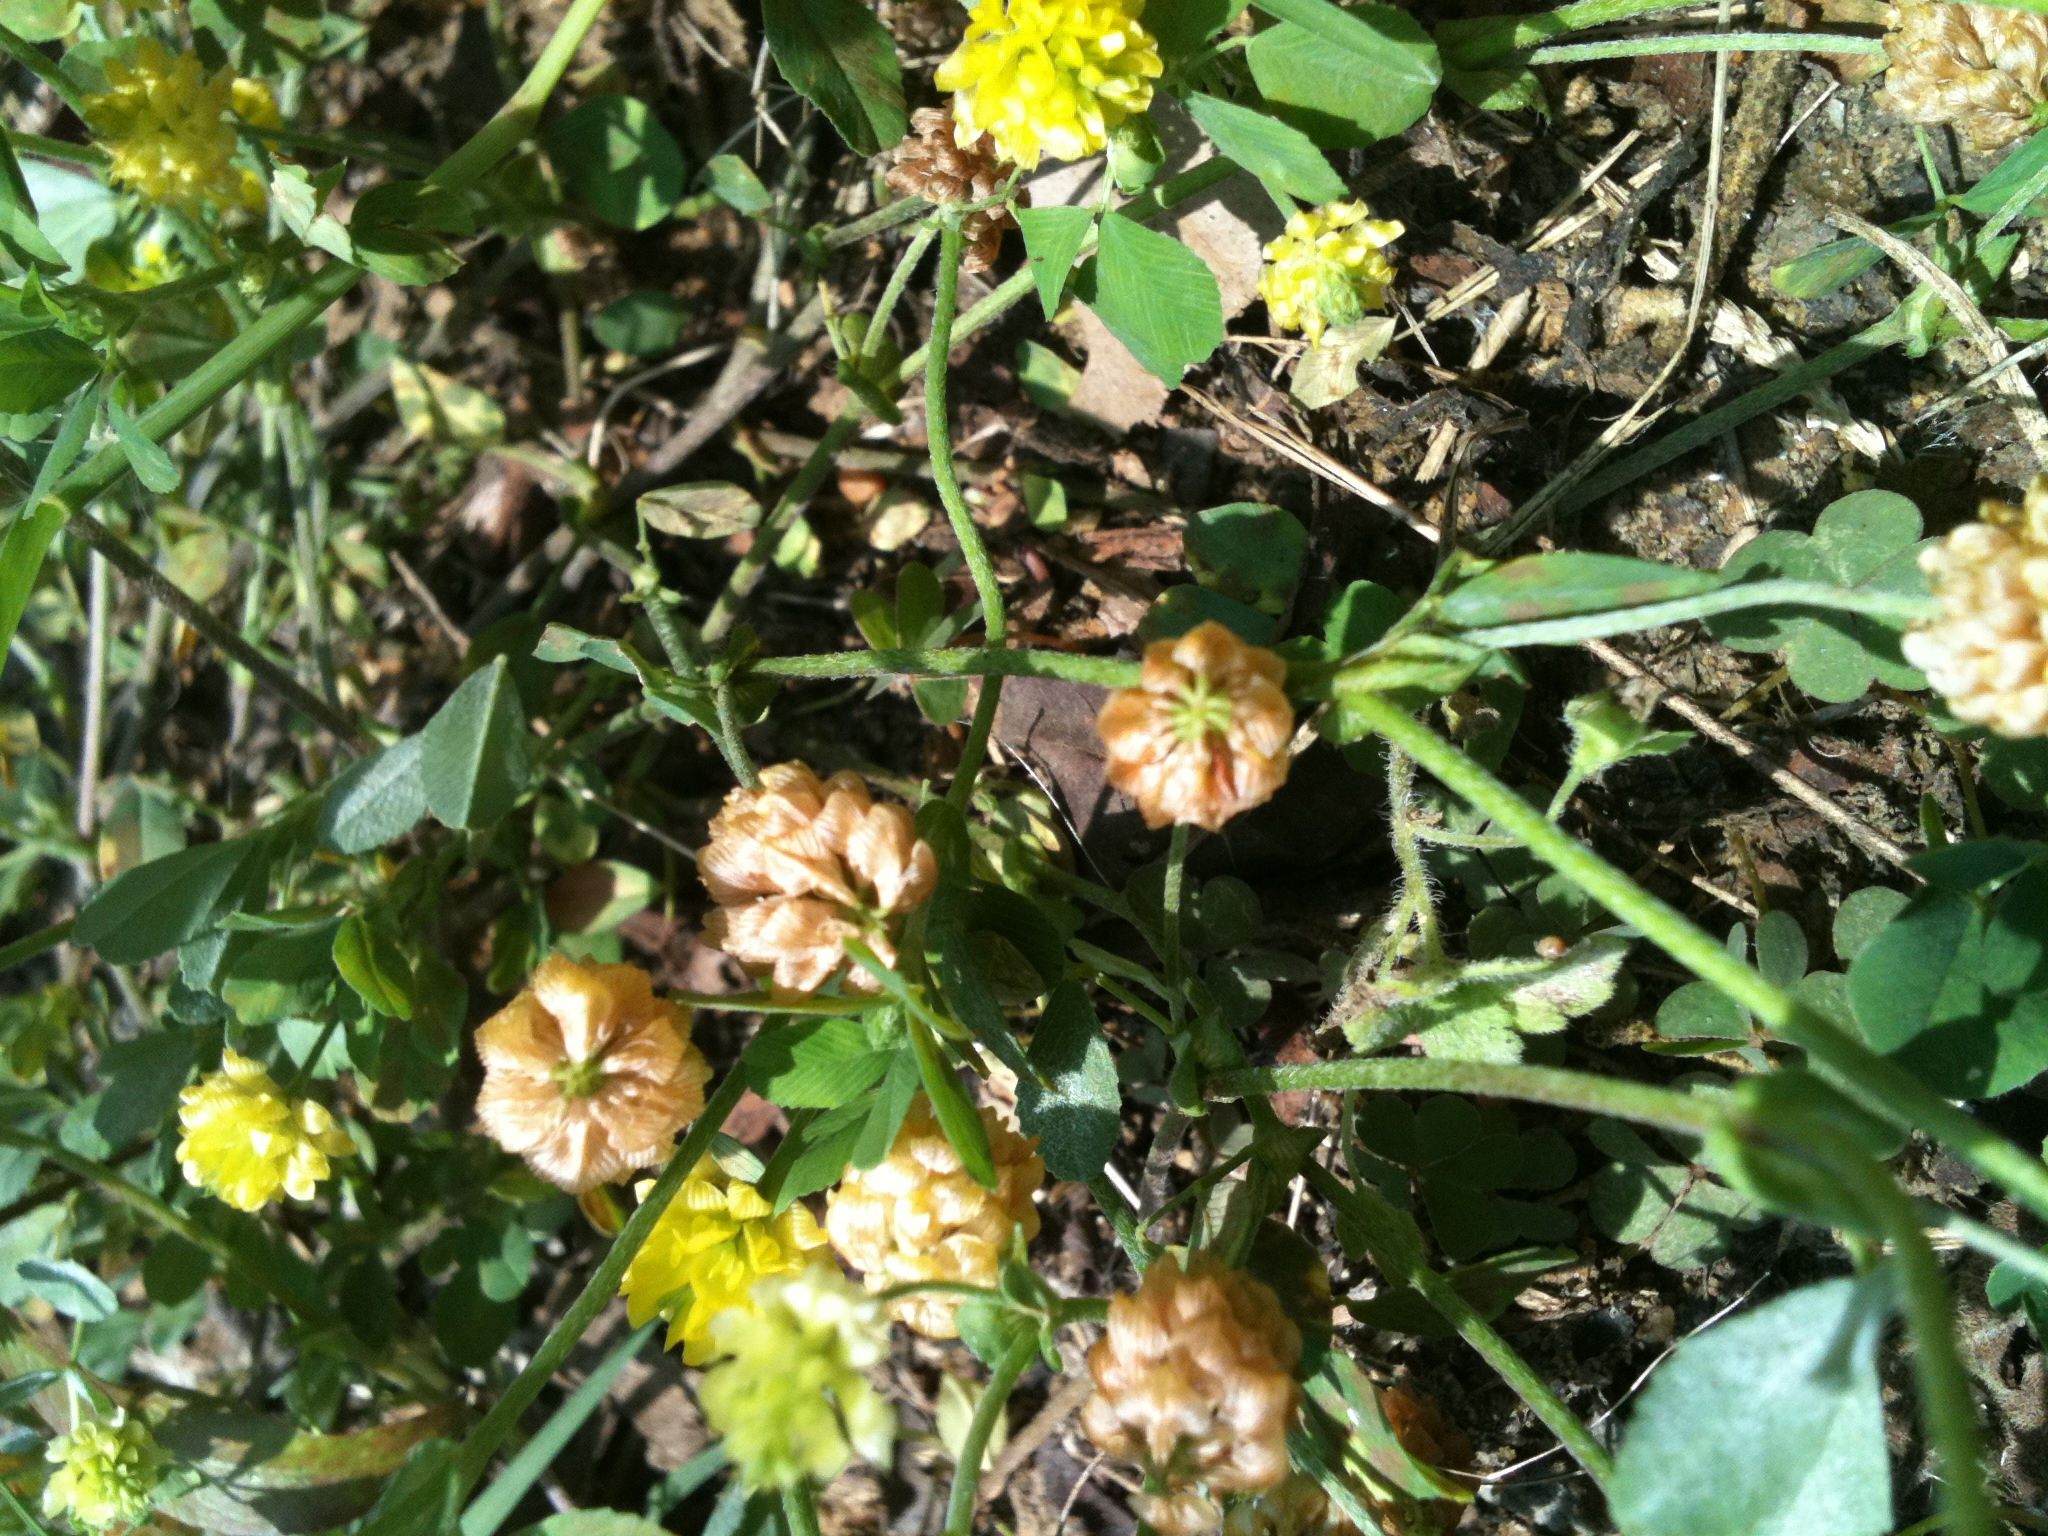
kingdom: Plantae
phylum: Tracheophyta
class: Magnoliopsida
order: Fabales
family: Fabaceae
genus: Trifolium
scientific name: Trifolium campestre
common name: Field clover
